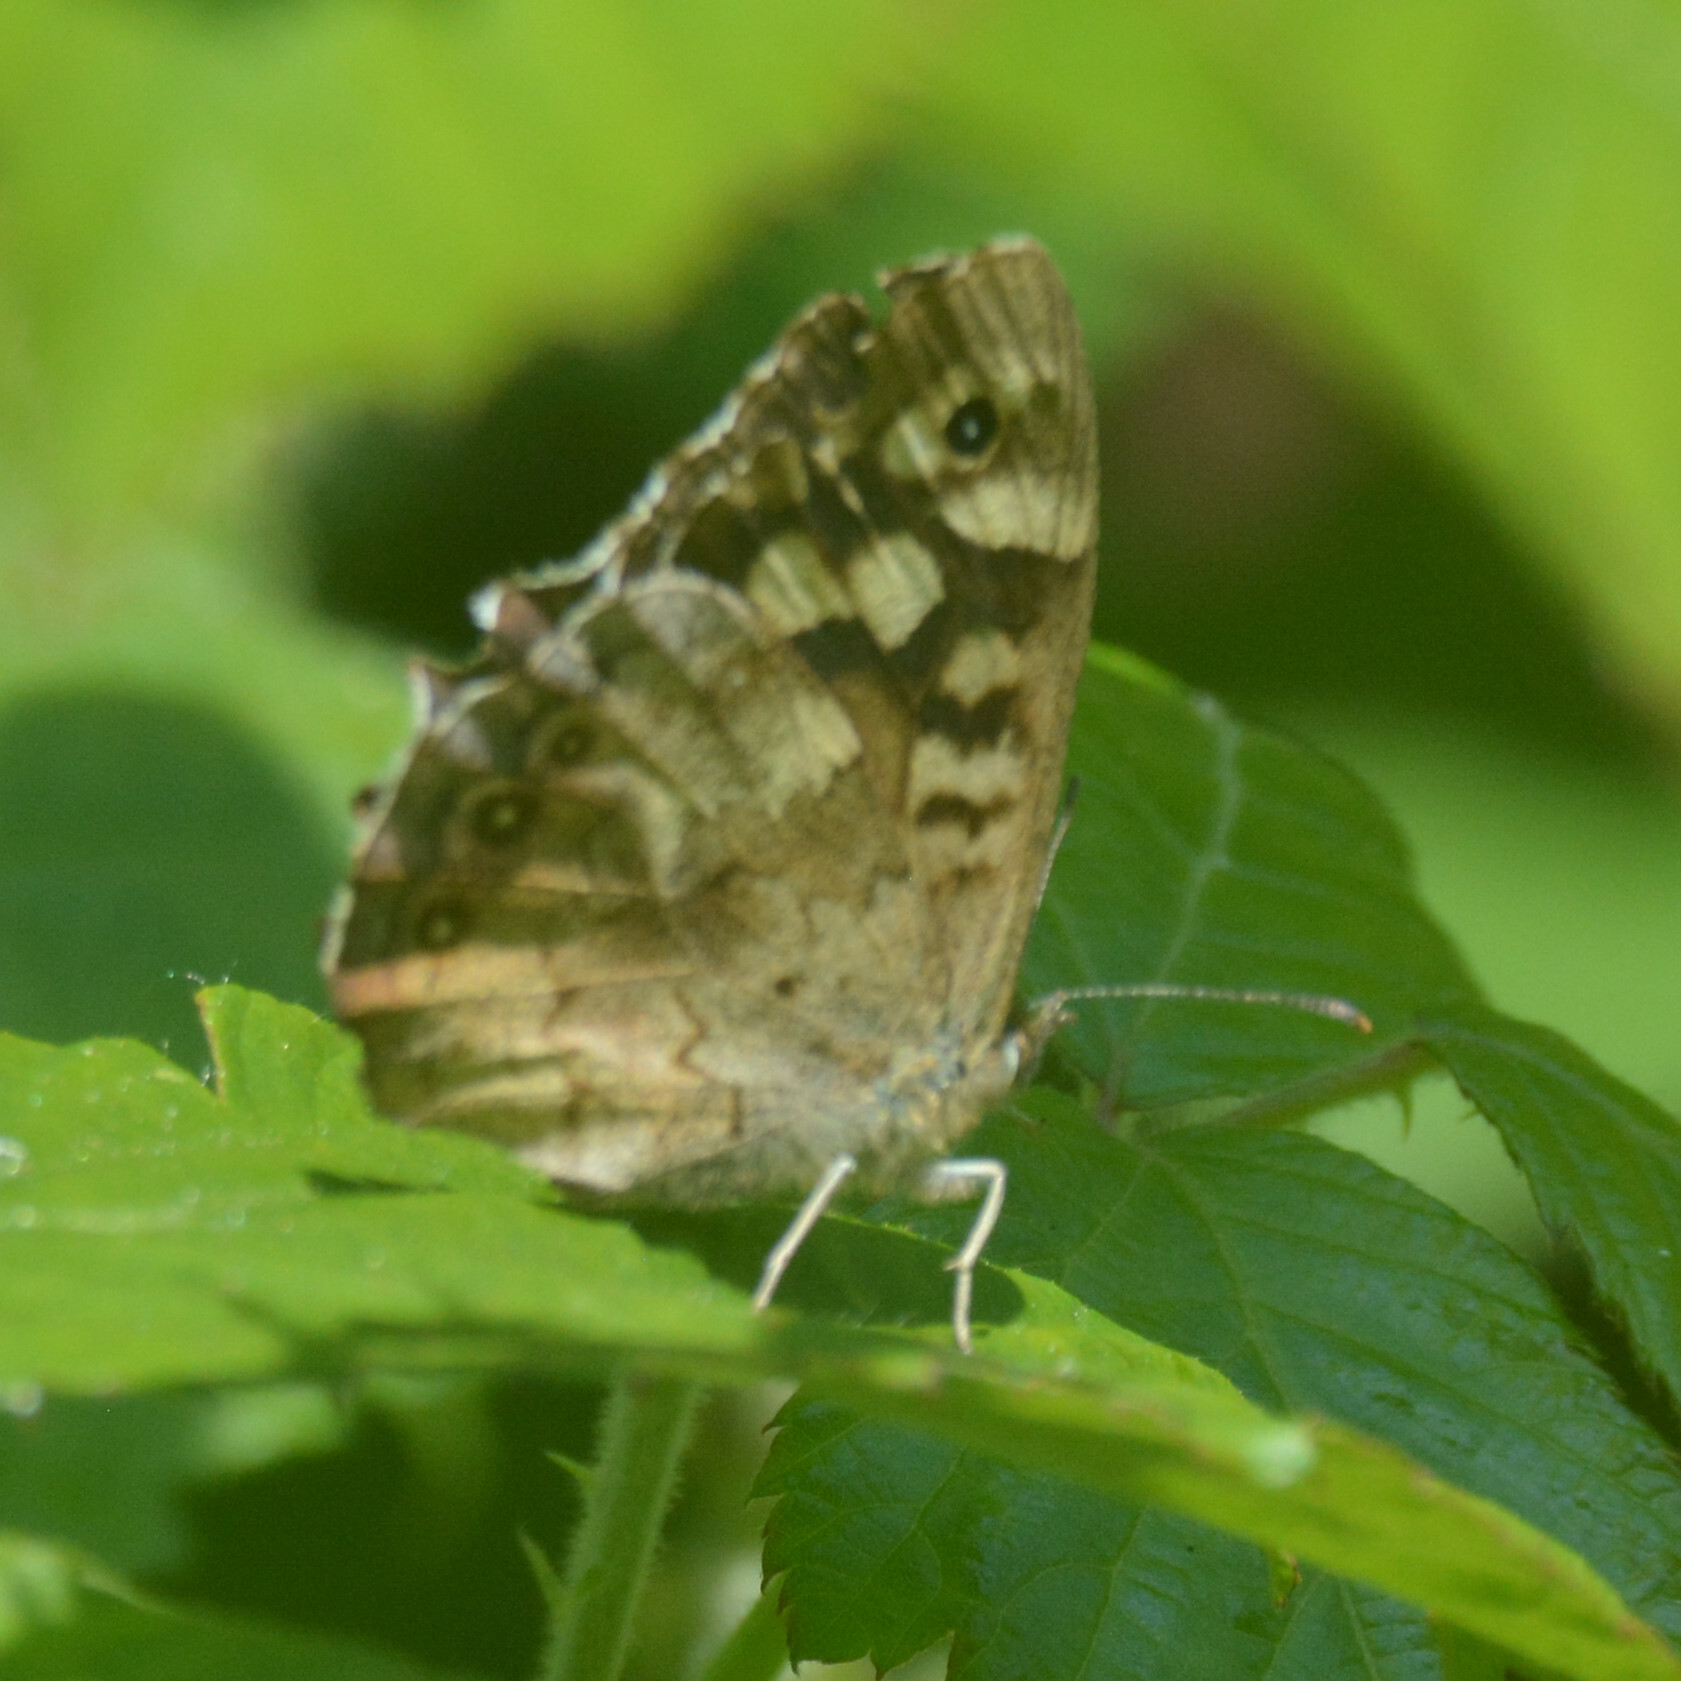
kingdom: Animalia
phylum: Arthropoda
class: Insecta
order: Lepidoptera
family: Nymphalidae
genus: Pararge
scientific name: Pararge aegeria
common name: Speckled wood
